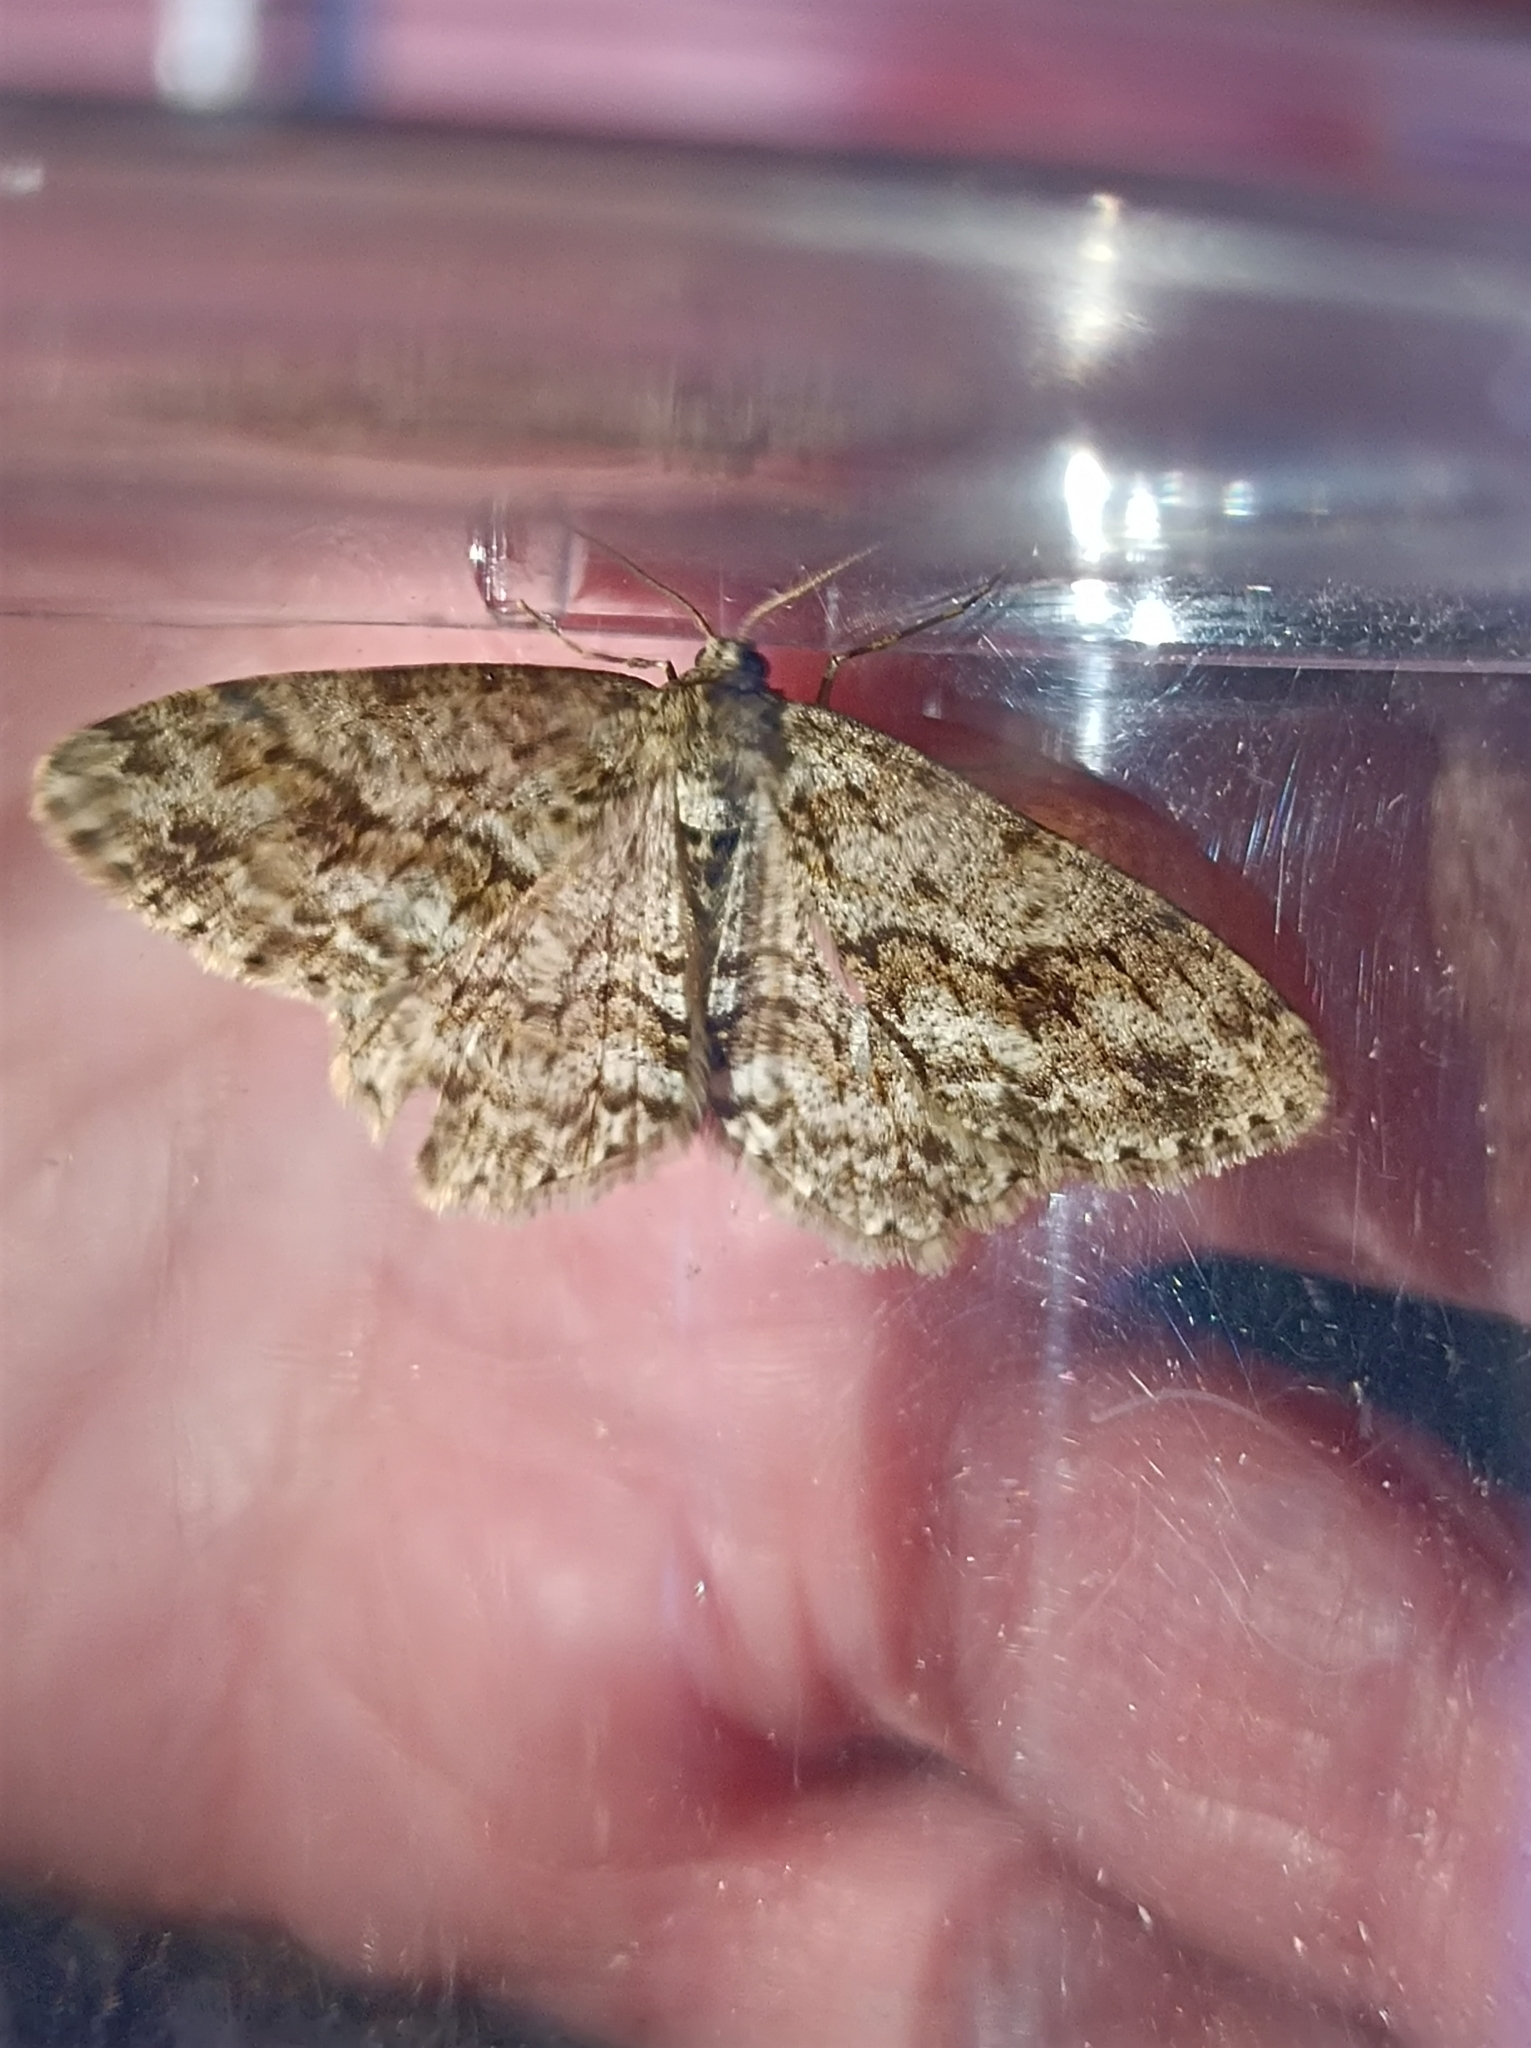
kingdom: Animalia
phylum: Arthropoda
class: Insecta
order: Lepidoptera
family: Geometridae
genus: Ectropis
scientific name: Ectropis crepuscularia
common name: Engrailed
